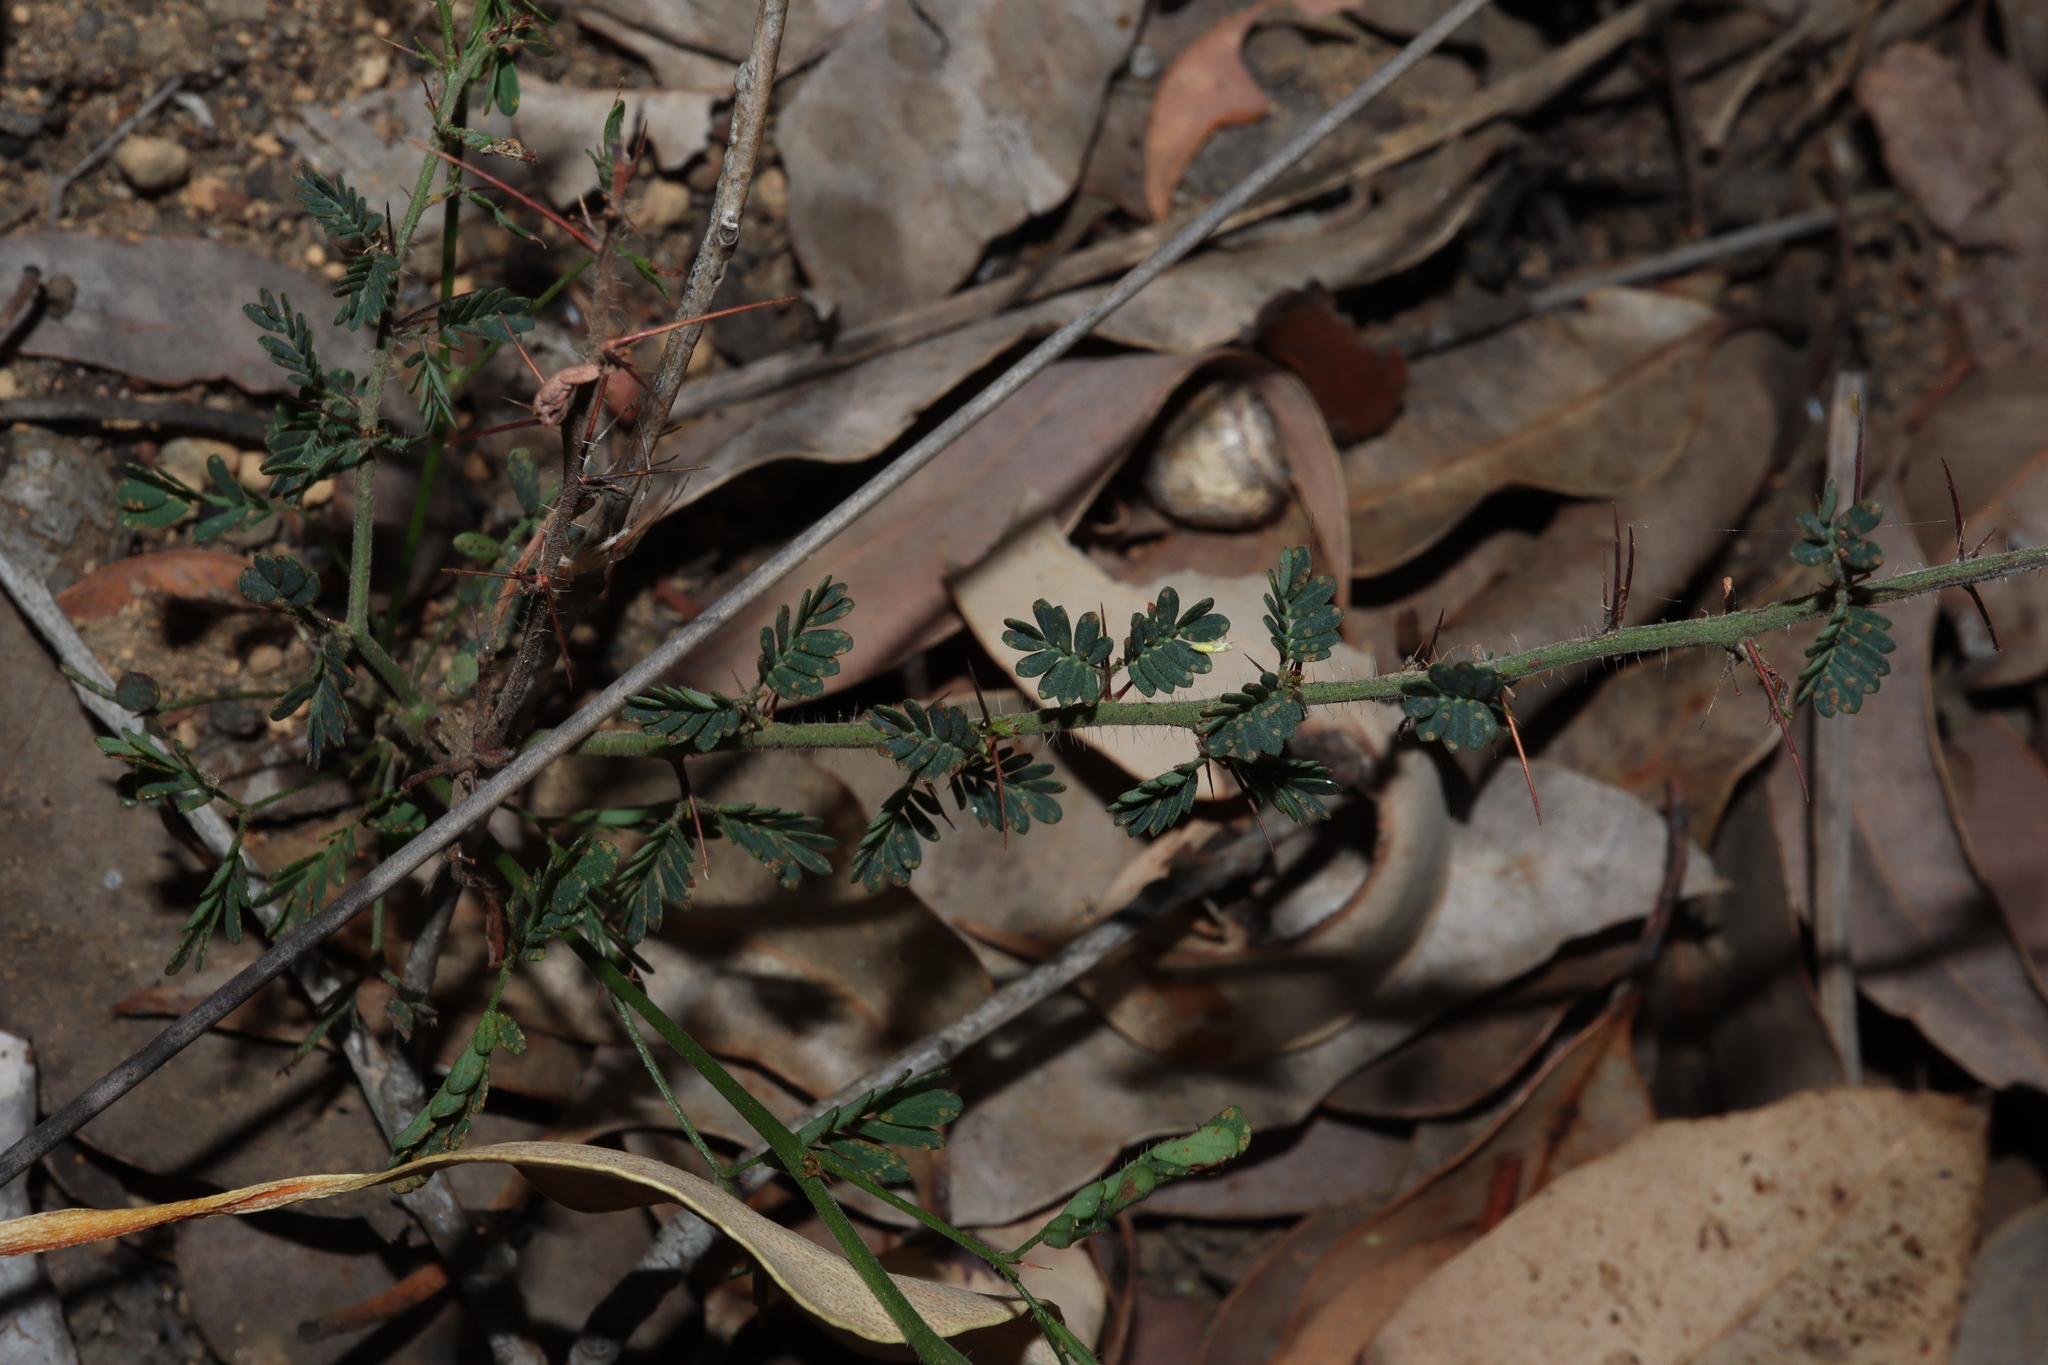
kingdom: Plantae
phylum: Tracheophyta
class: Magnoliopsida
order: Fabales
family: Fabaceae
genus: Acacia
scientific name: Acacia pulchella
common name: Prickly moses
